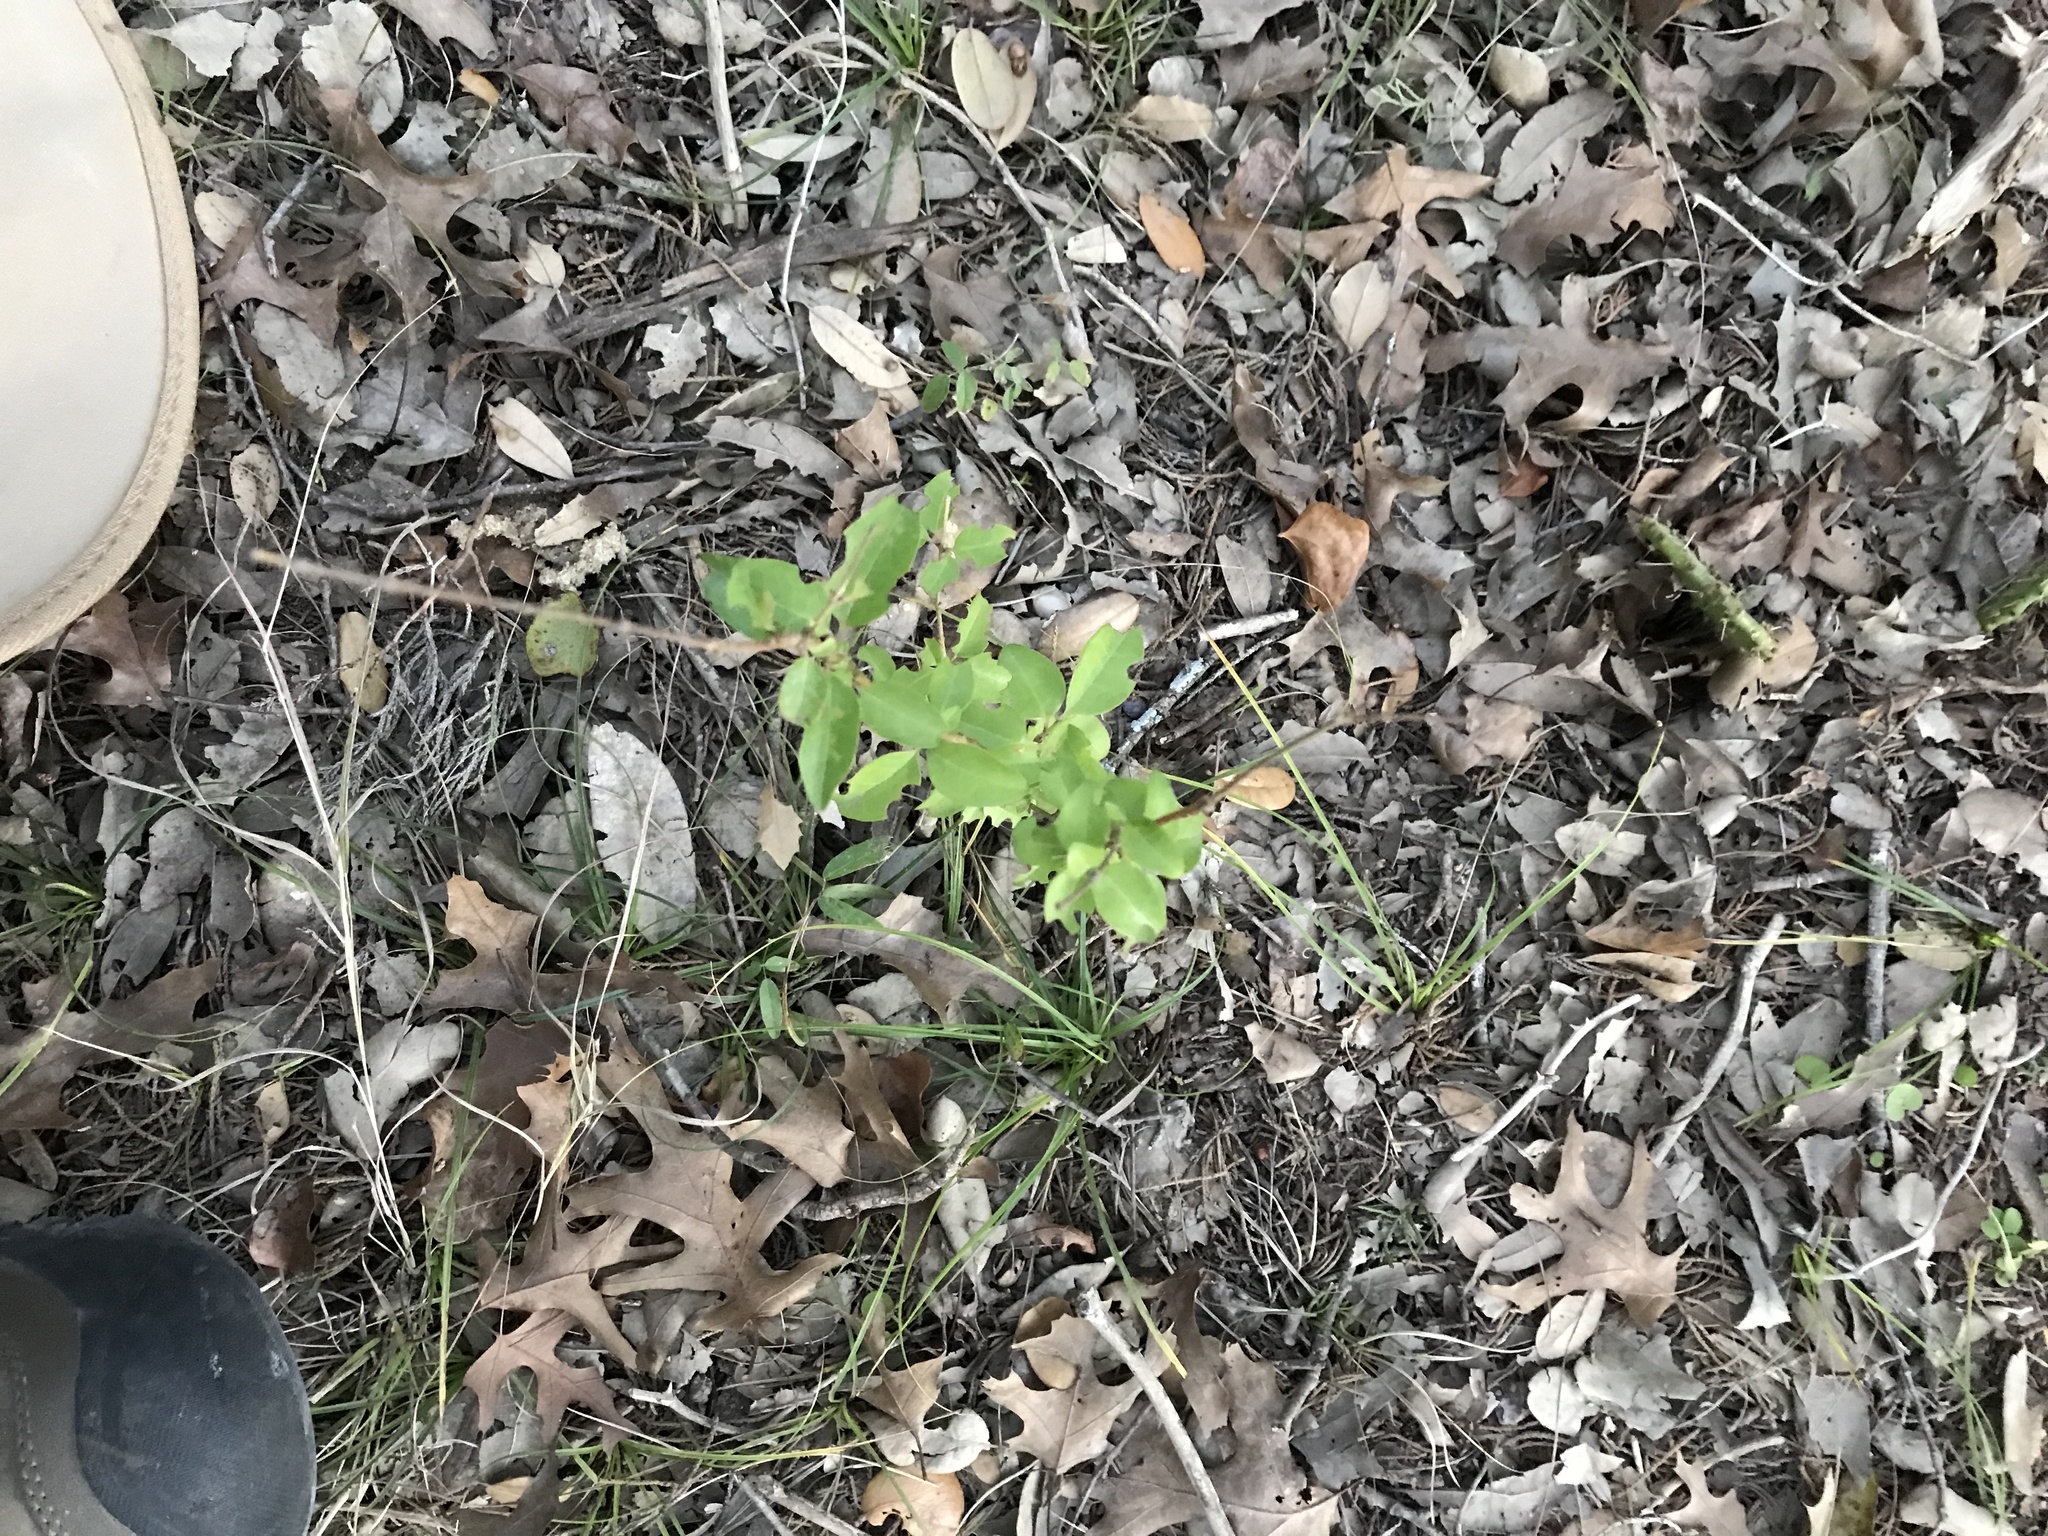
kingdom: Plantae
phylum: Tracheophyta
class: Magnoliopsida
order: Lamiales
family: Oleaceae
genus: Ligustrum
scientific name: Ligustrum lucidum
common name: Glossy privet
